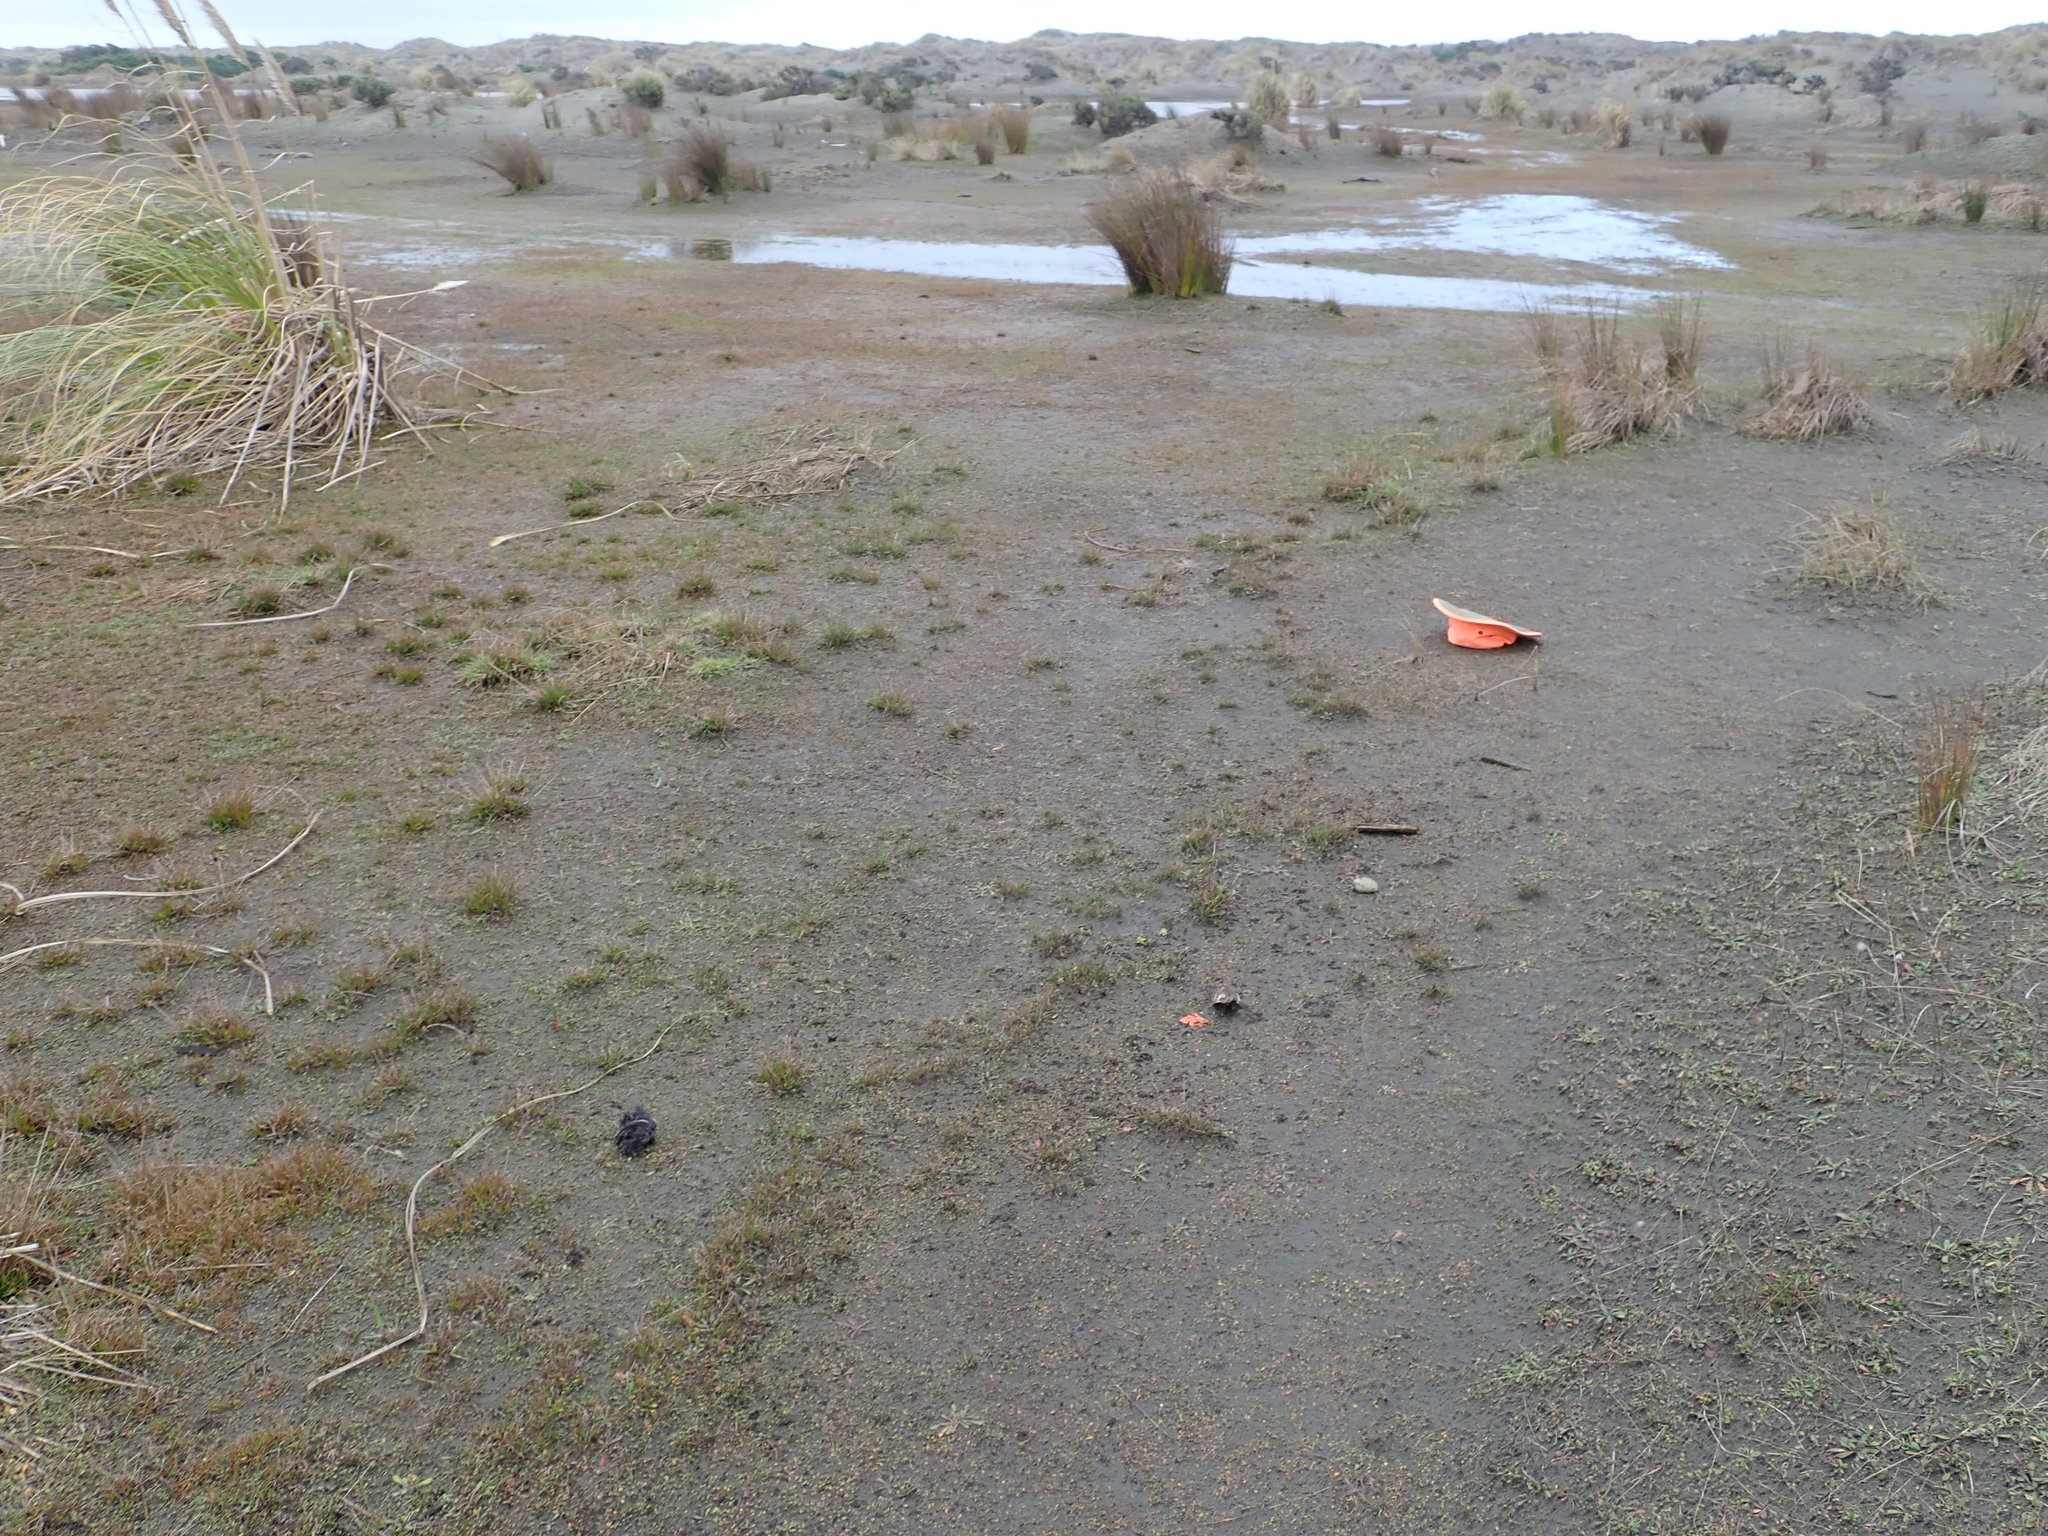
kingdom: Plantae
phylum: Tracheophyta
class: Magnoliopsida
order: Asterales
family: Goodeniaceae
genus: Goodenia
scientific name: Goodenia heenanii
